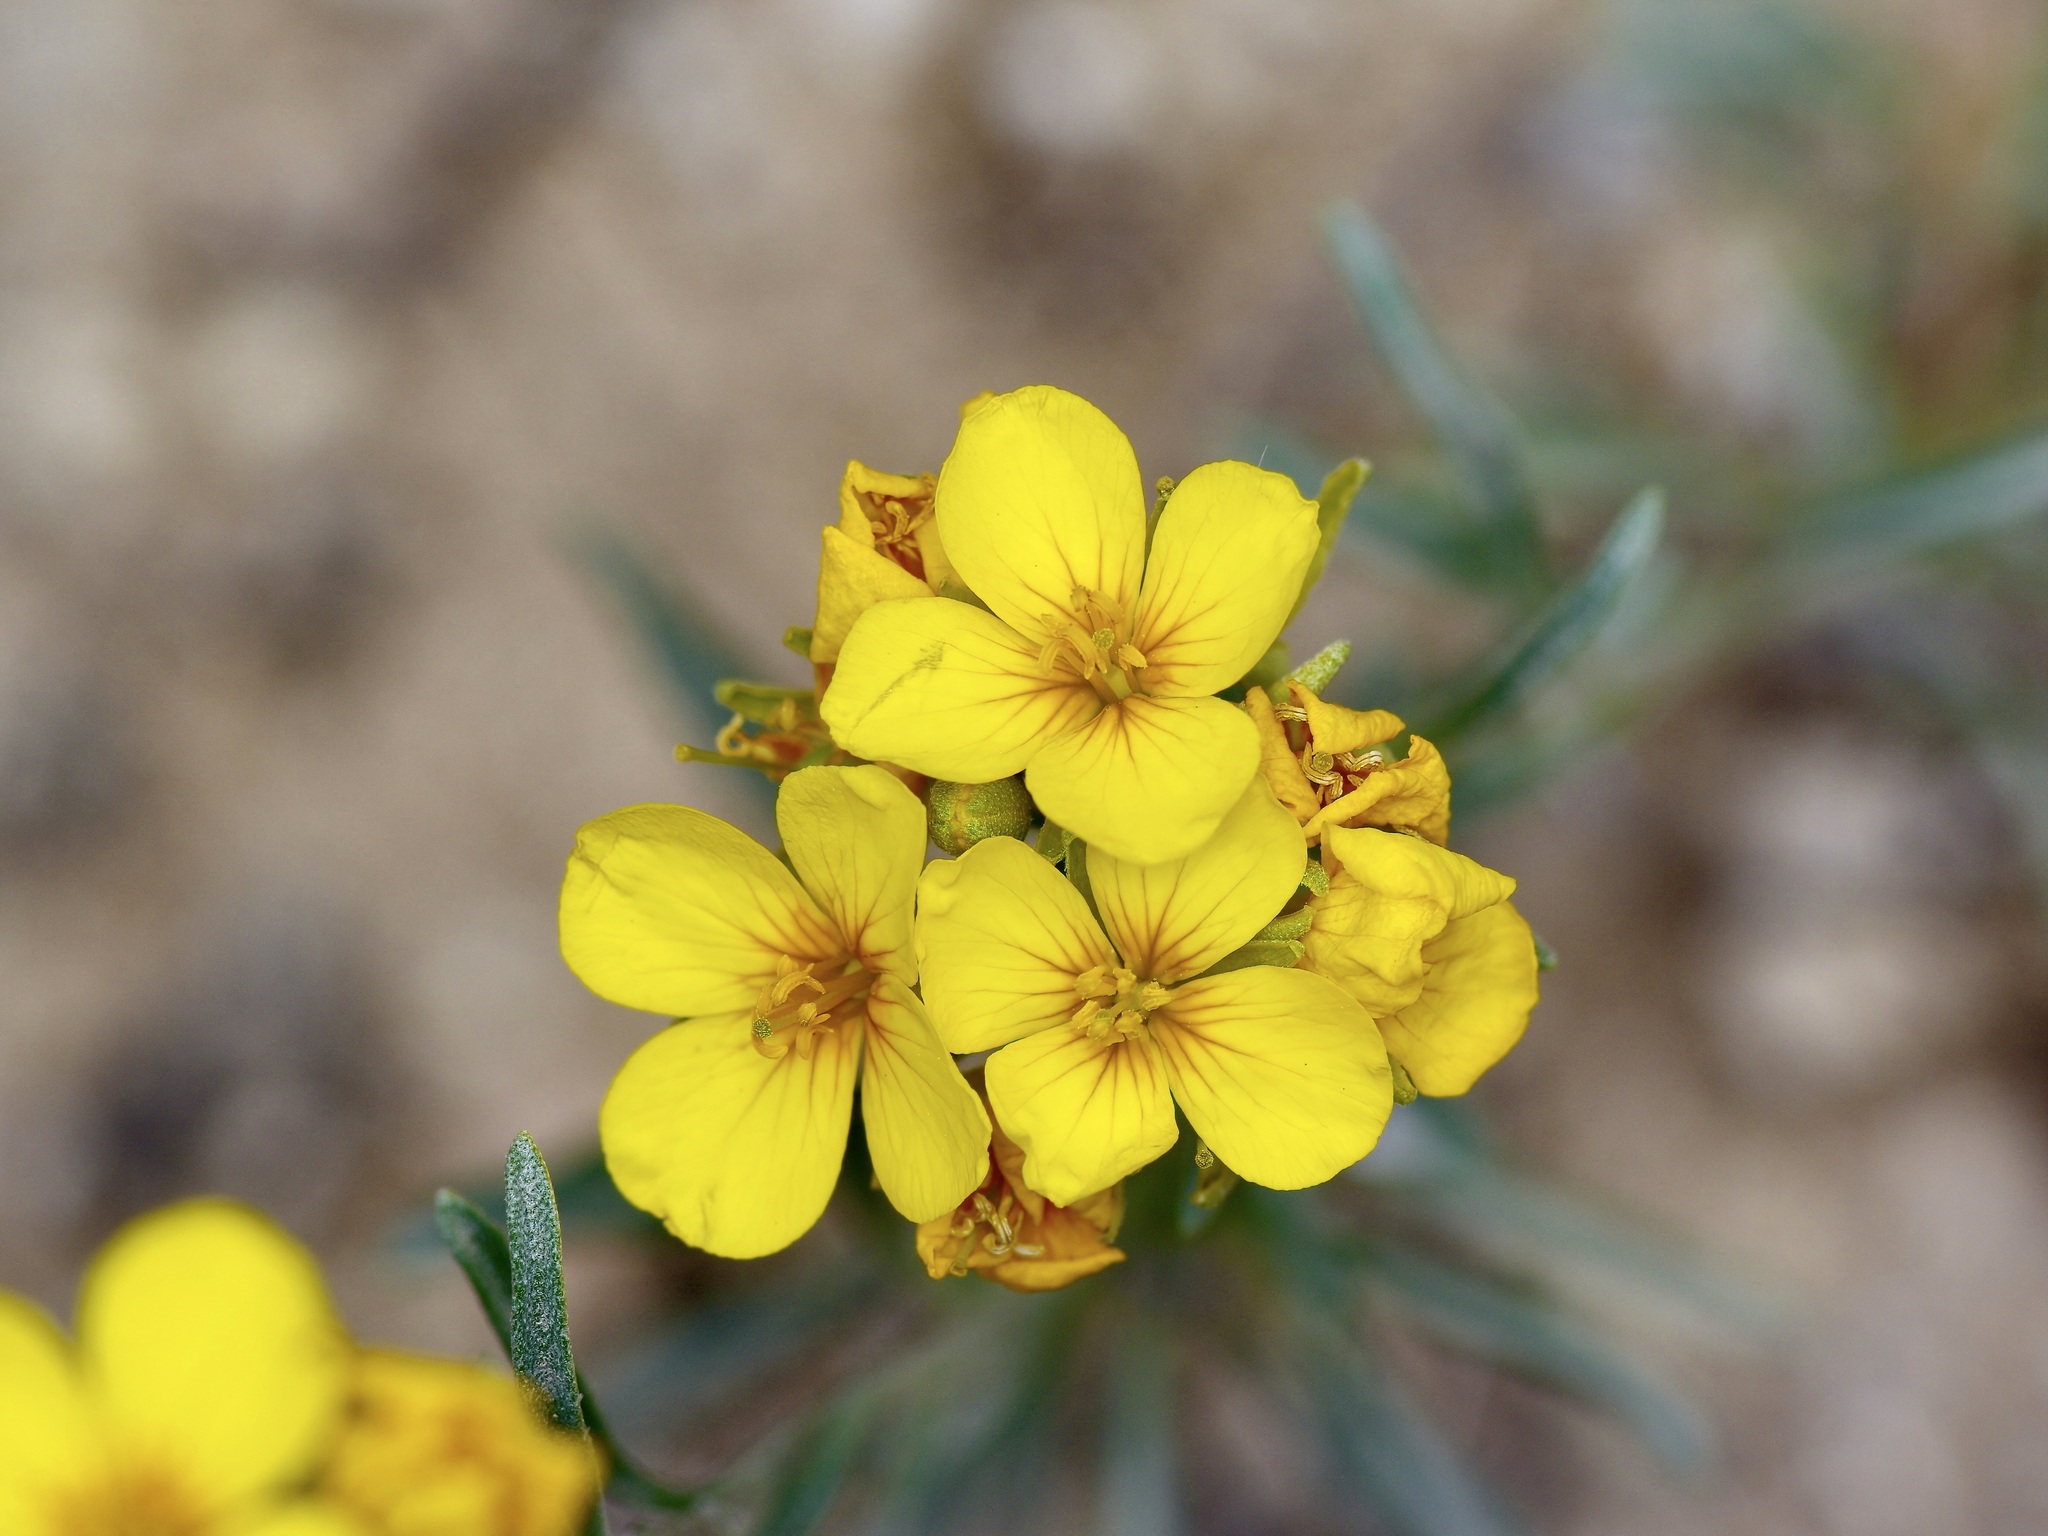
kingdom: Plantae
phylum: Tracheophyta
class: Magnoliopsida
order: Brassicales
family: Brassicaceae
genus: Physaria
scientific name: Physaria fendleri
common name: Fendler's bladderpod
